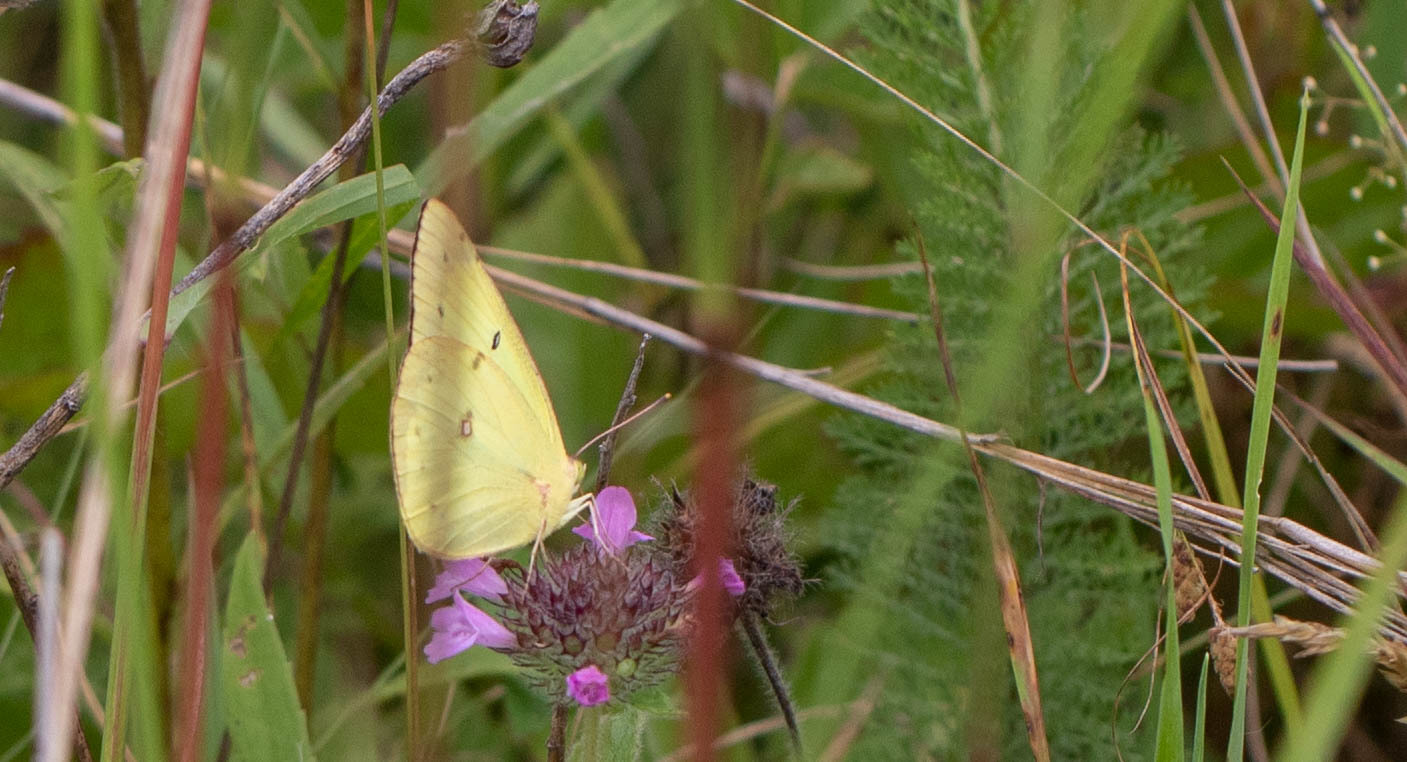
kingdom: Animalia
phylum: Arthropoda
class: Insecta
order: Lepidoptera
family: Pieridae
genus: Colias
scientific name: Colias philodice
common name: Clouded sulphur
